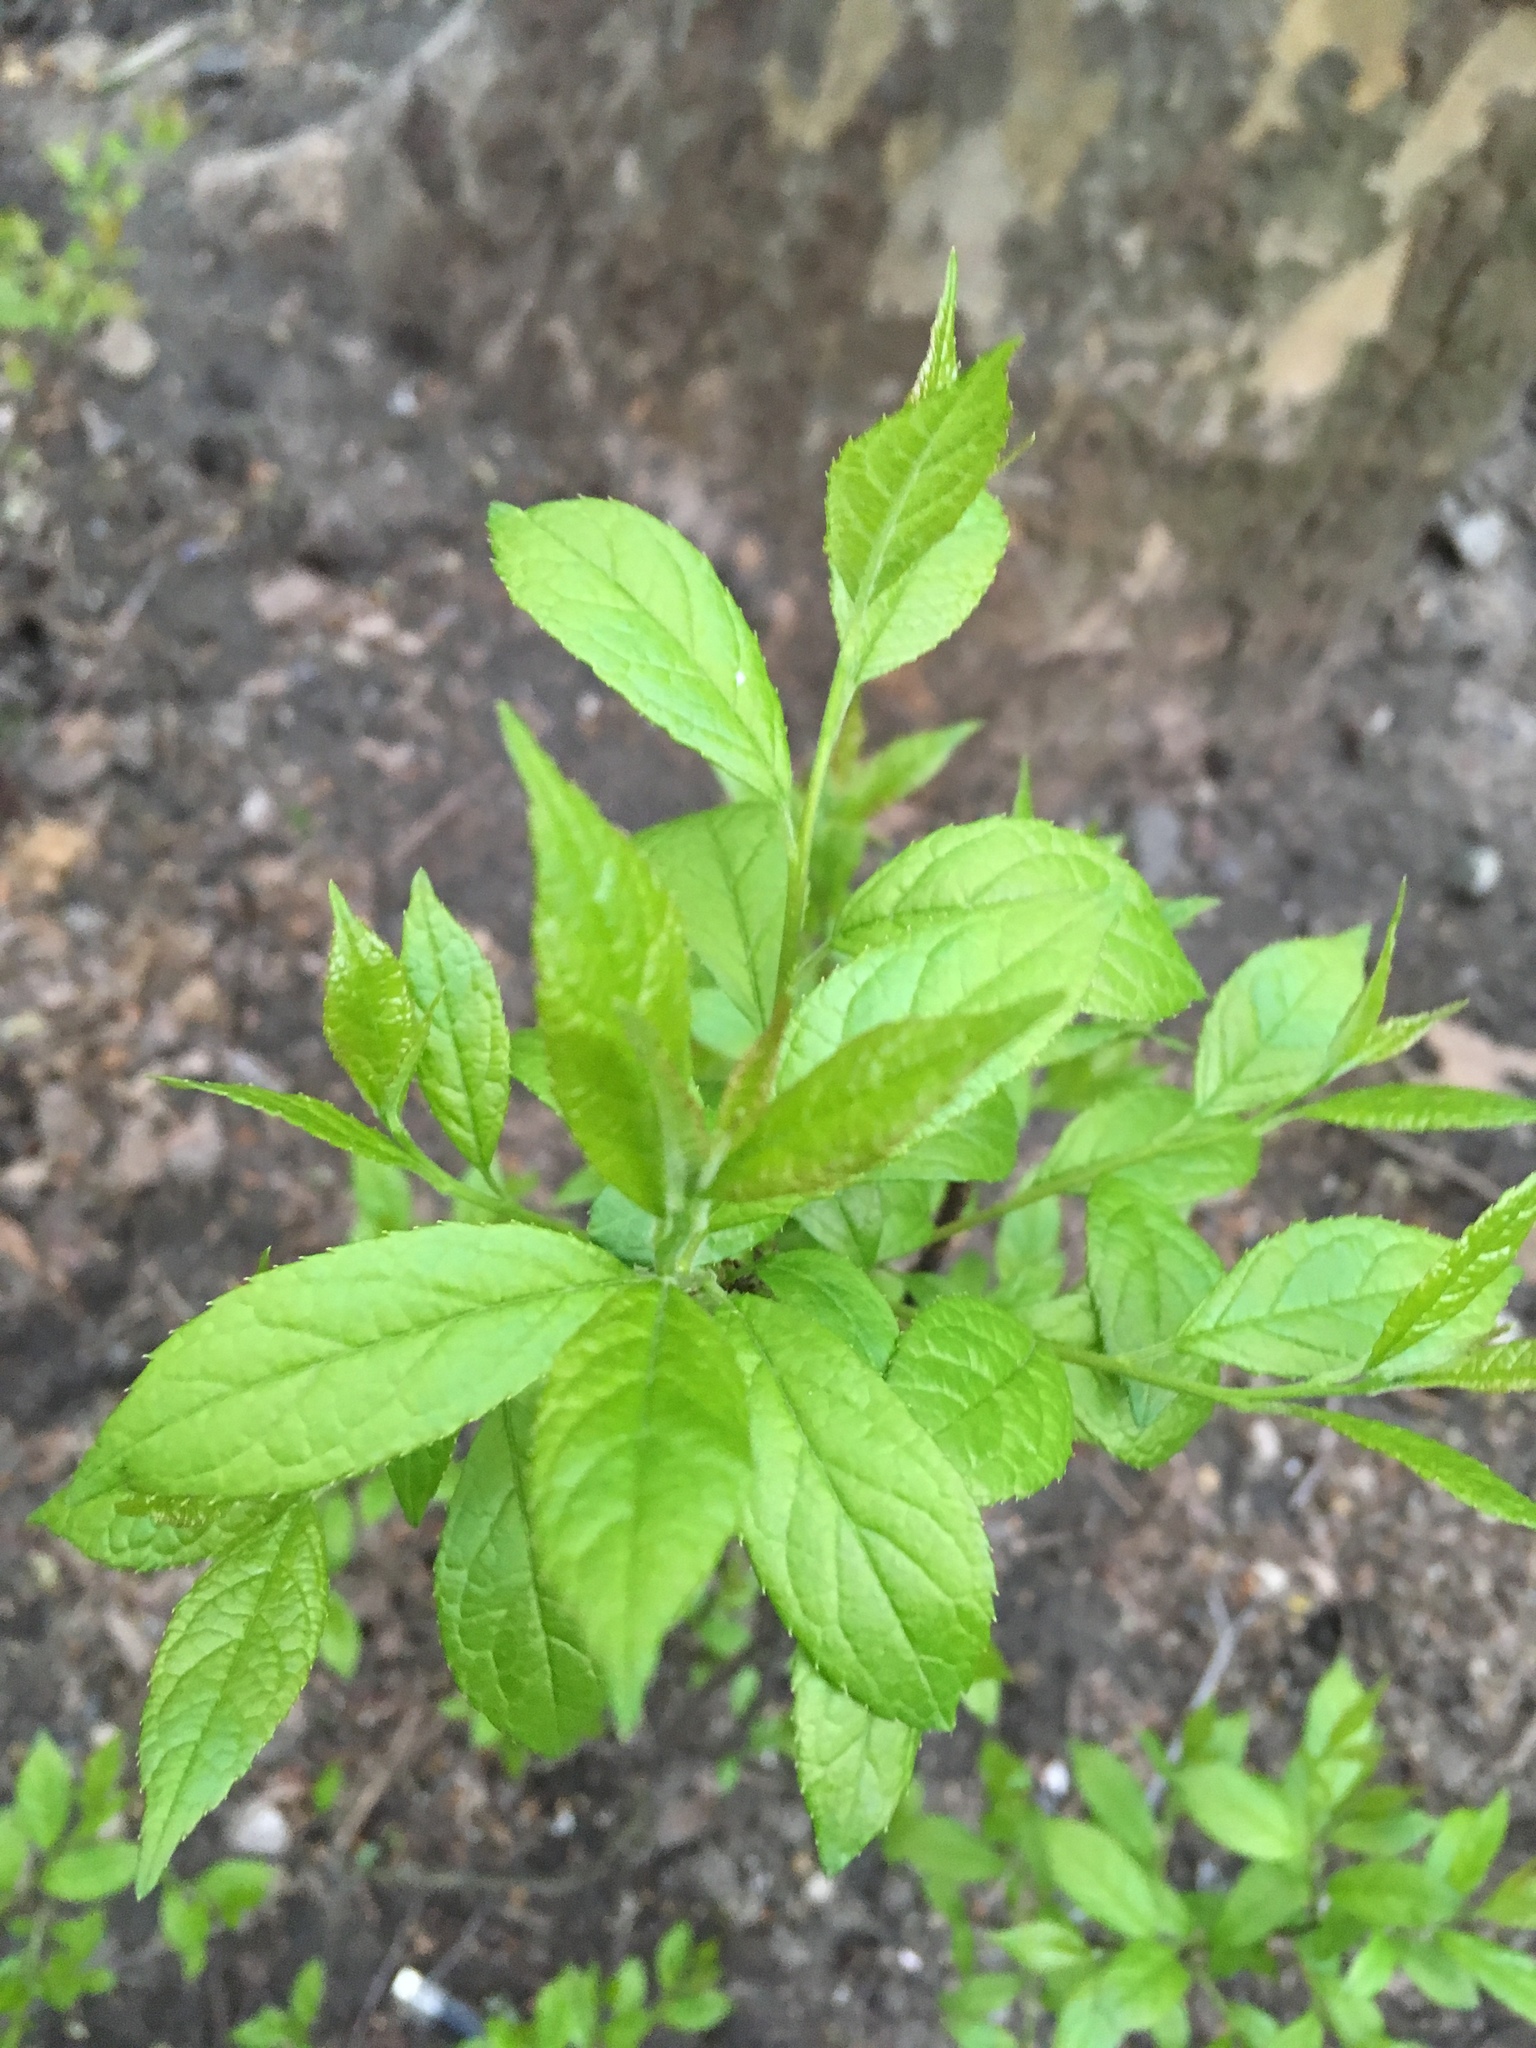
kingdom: Plantae
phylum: Tracheophyta
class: Magnoliopsida
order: Aquifoliales
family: Aquifoliaceae
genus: Ilex
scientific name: Ilex verticillata
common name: Virginia winterberry
